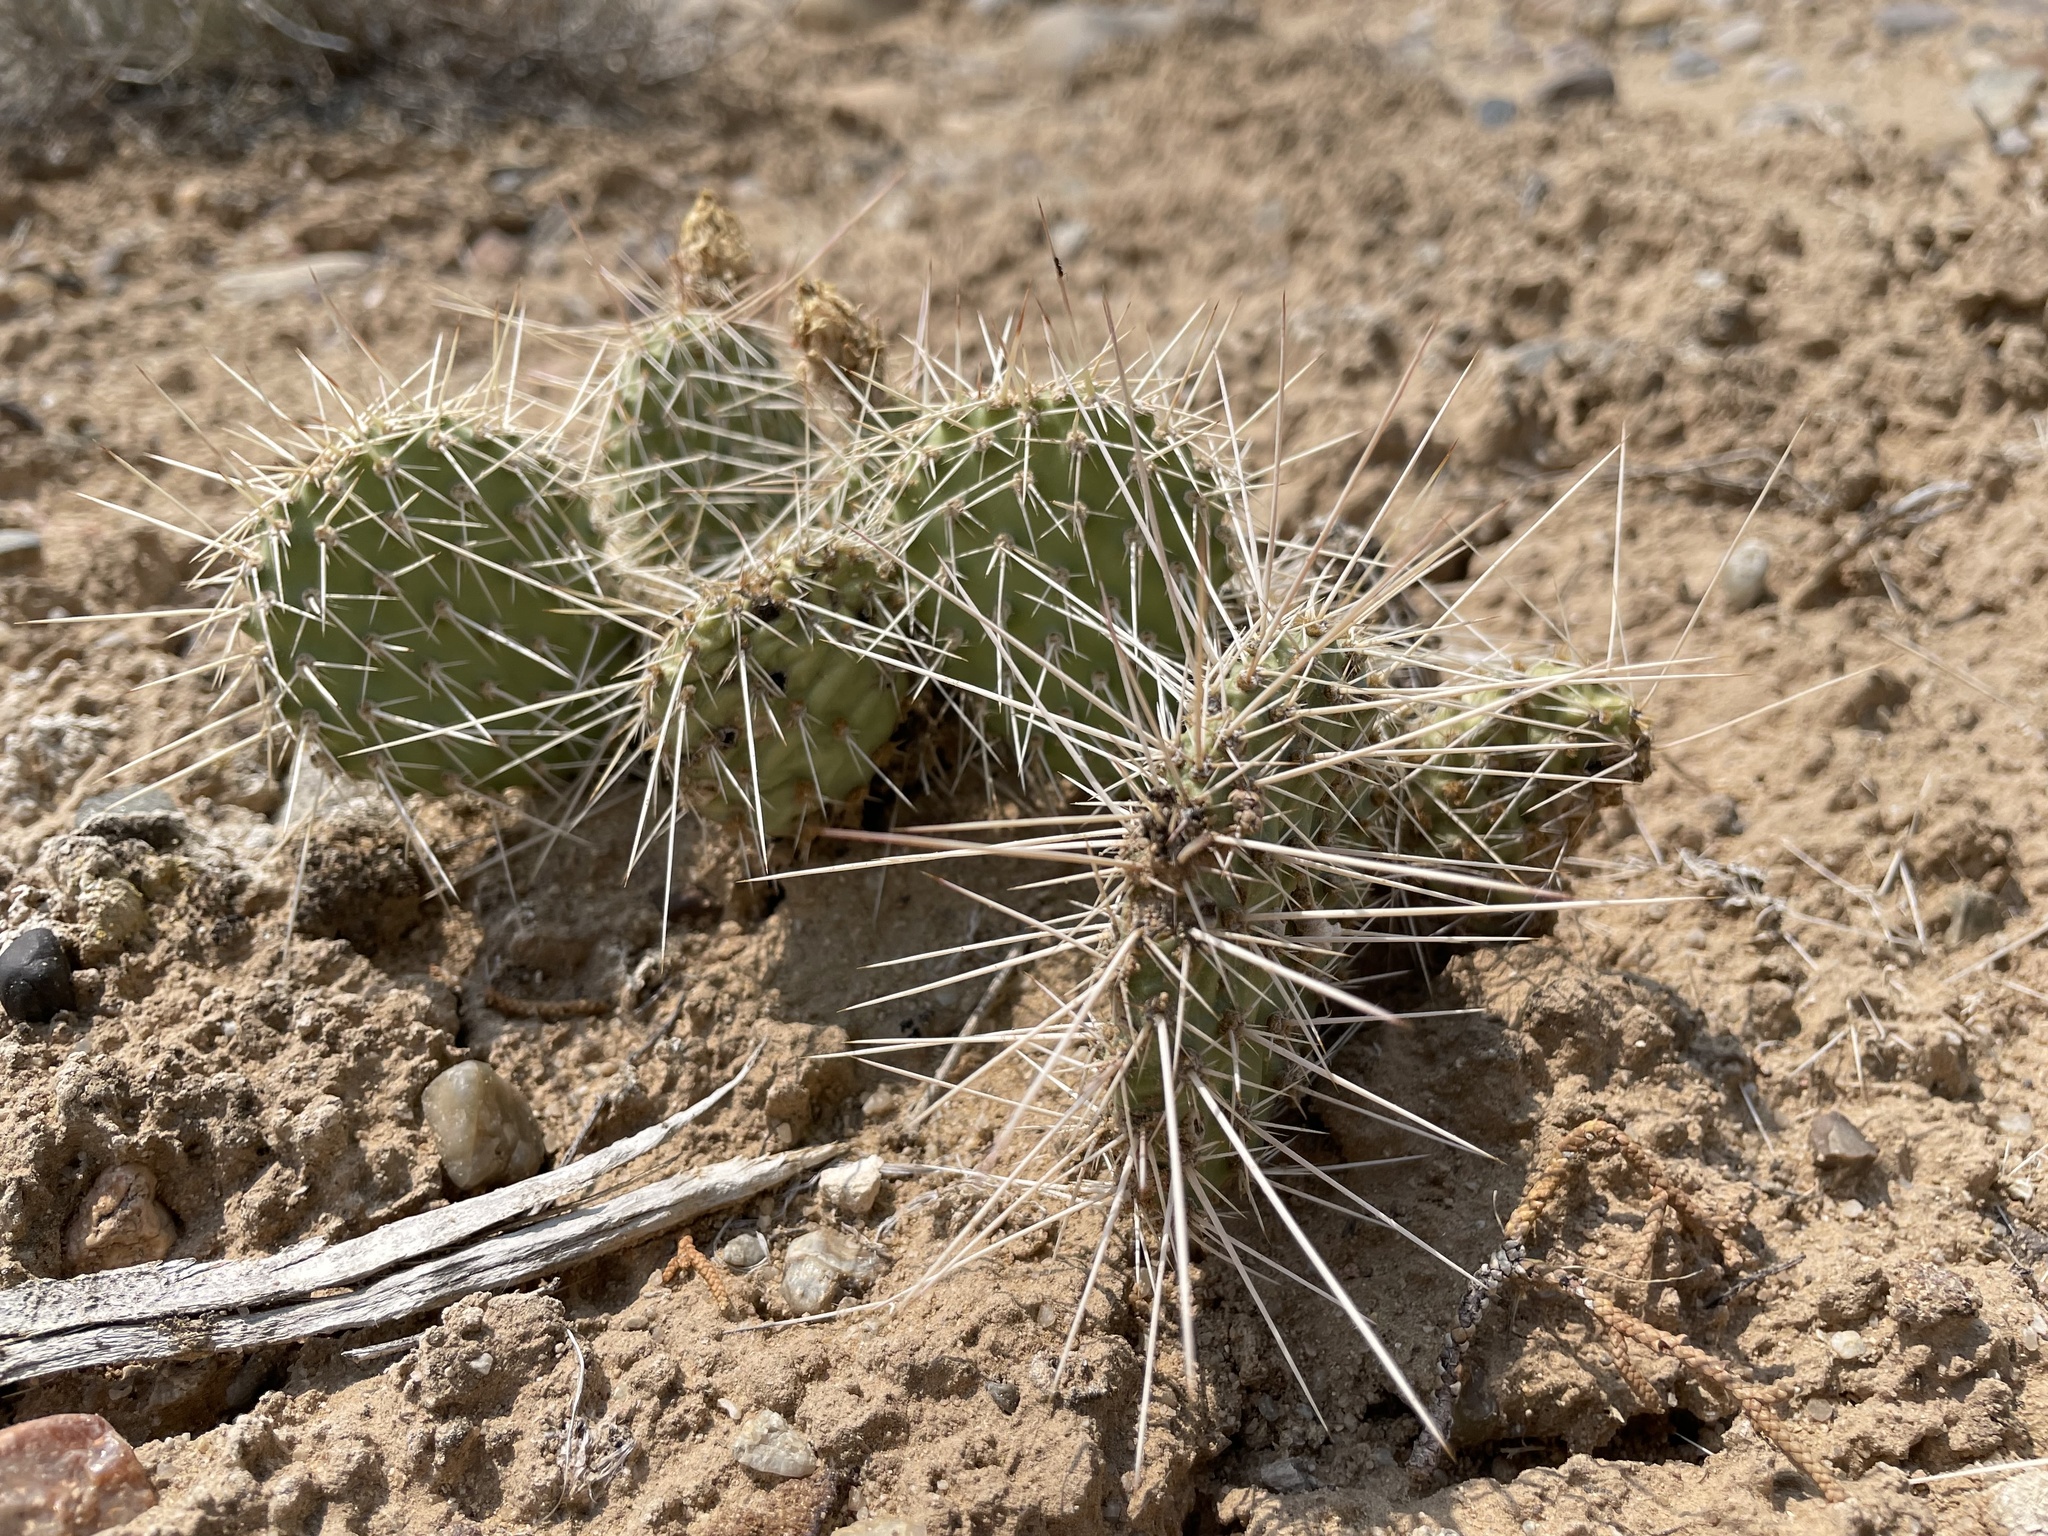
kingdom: Plantae
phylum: Tracheophyta
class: Magnoliopsida
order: Caryophyllales
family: Cactaceae
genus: Opuntia
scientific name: Opuntia polyacantha
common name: Plains prickly-pear
